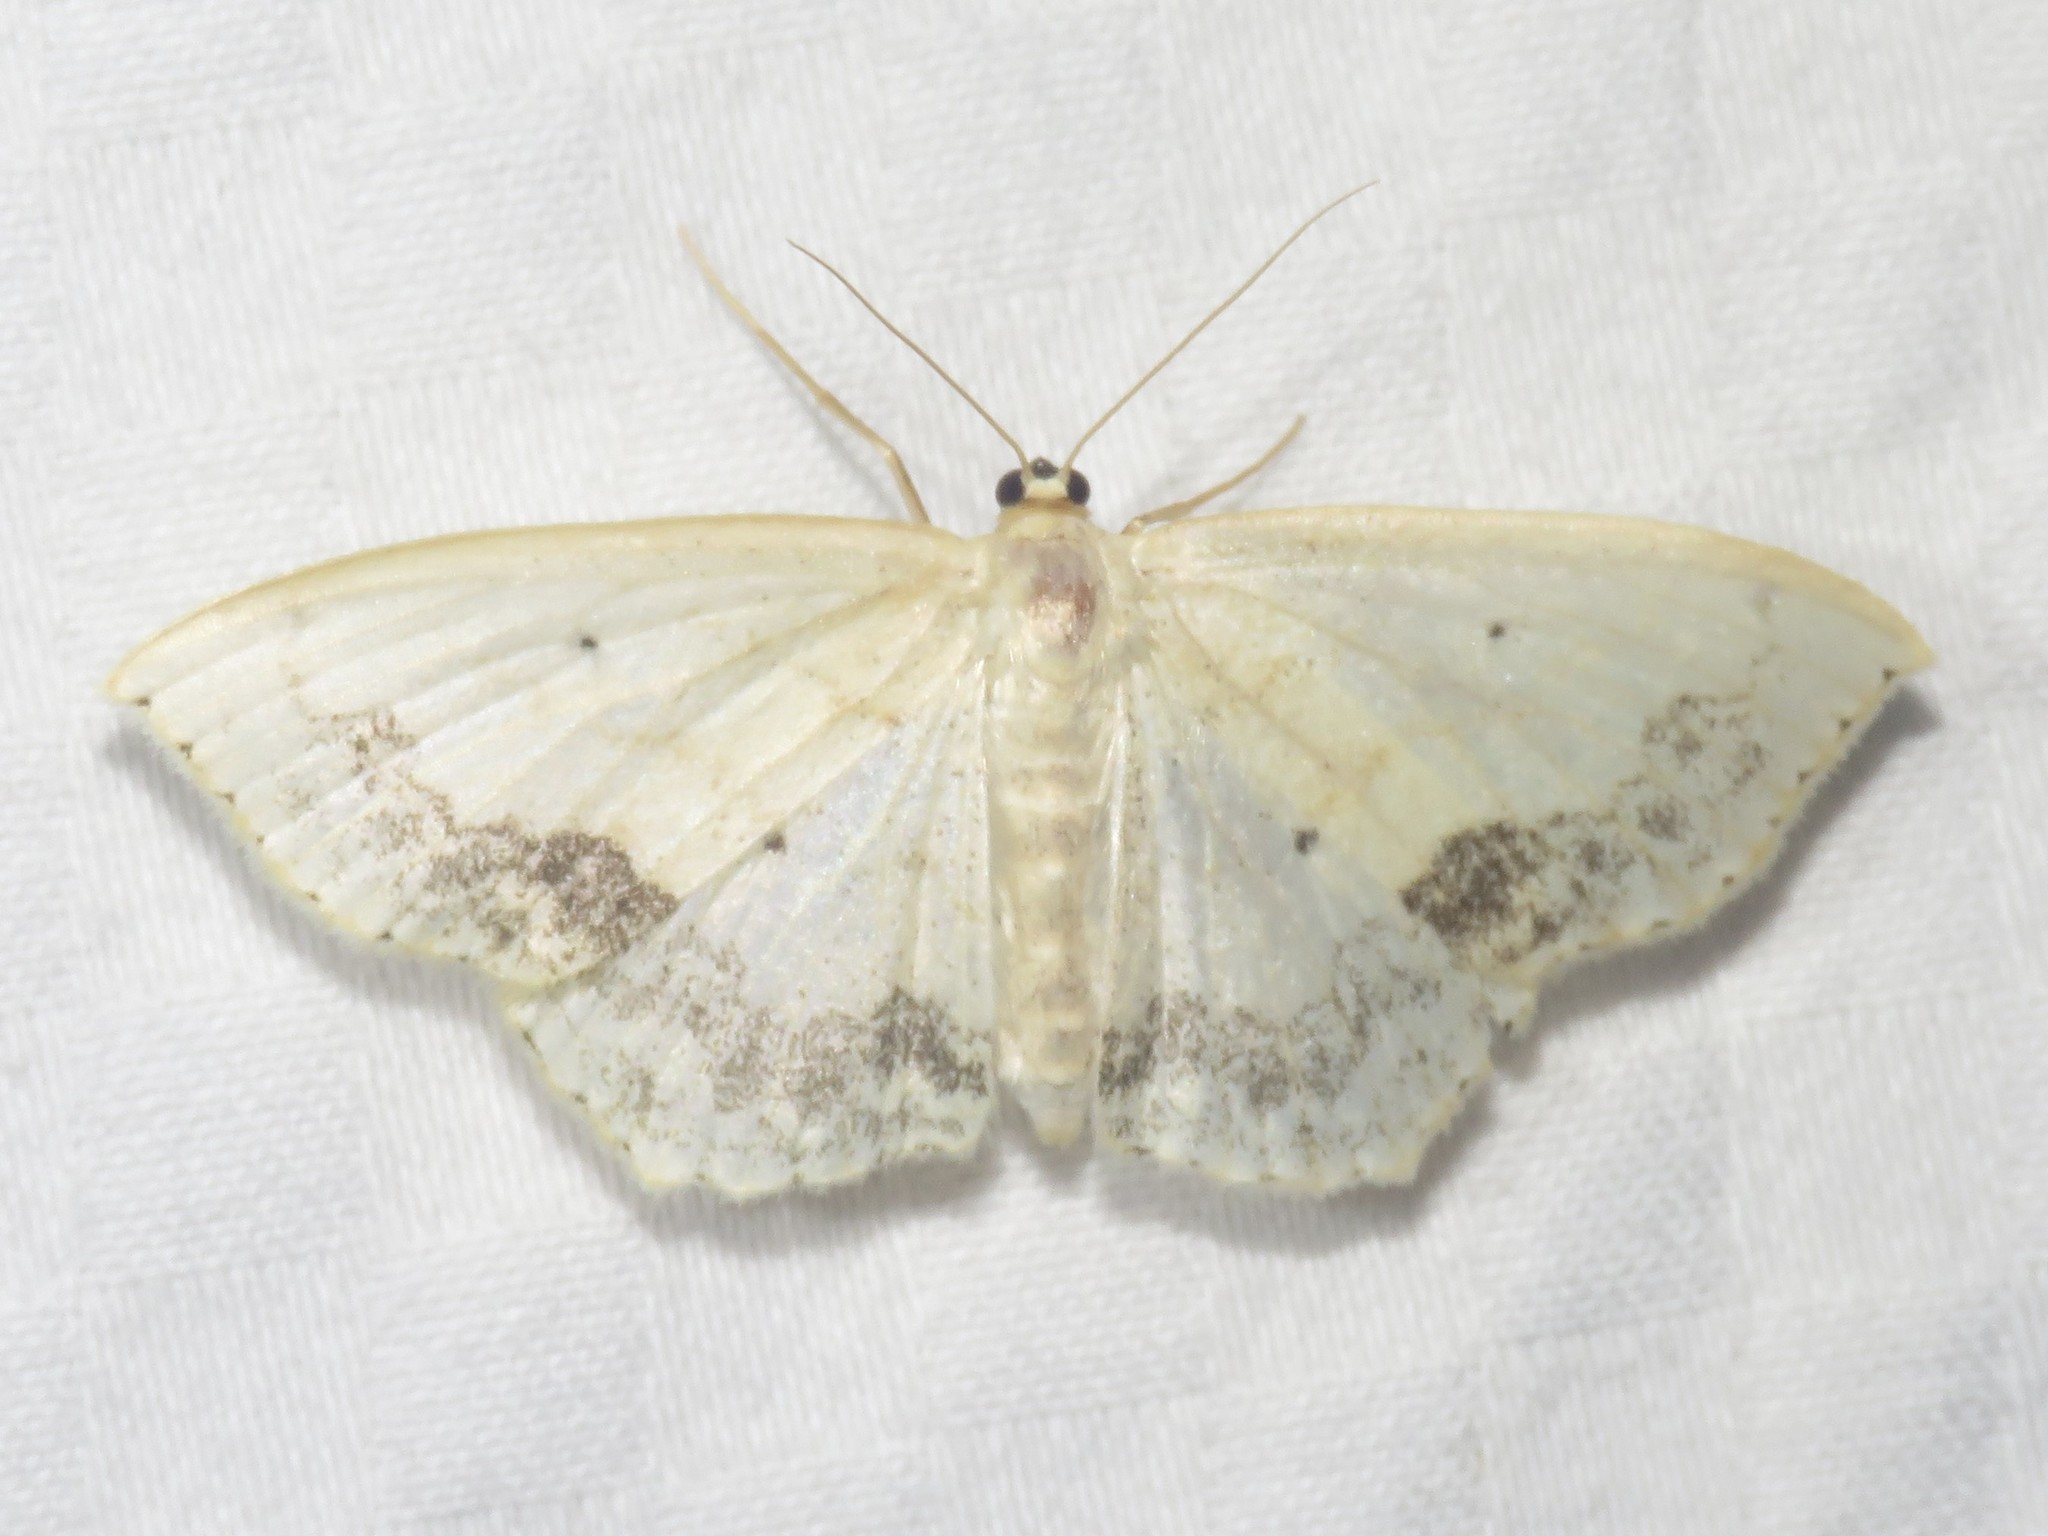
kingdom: Animalia
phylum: Arthropoda
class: Insecta
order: Lepidoptera
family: Geometridae
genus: Scopula
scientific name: Scopula limboundata
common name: Large lace border
